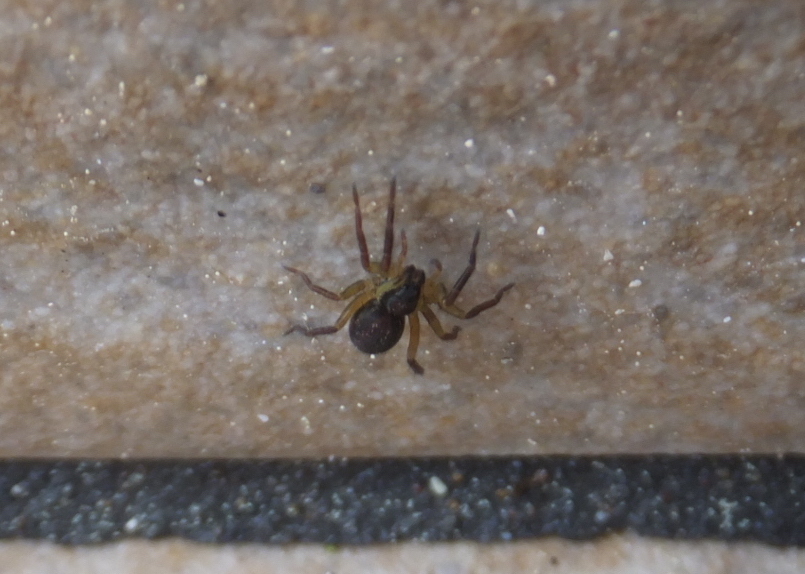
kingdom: Animalia
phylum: Arthropoda
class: Arachnida
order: Araneae
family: Lycosidae
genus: Hogna
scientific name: Hogna radiata
